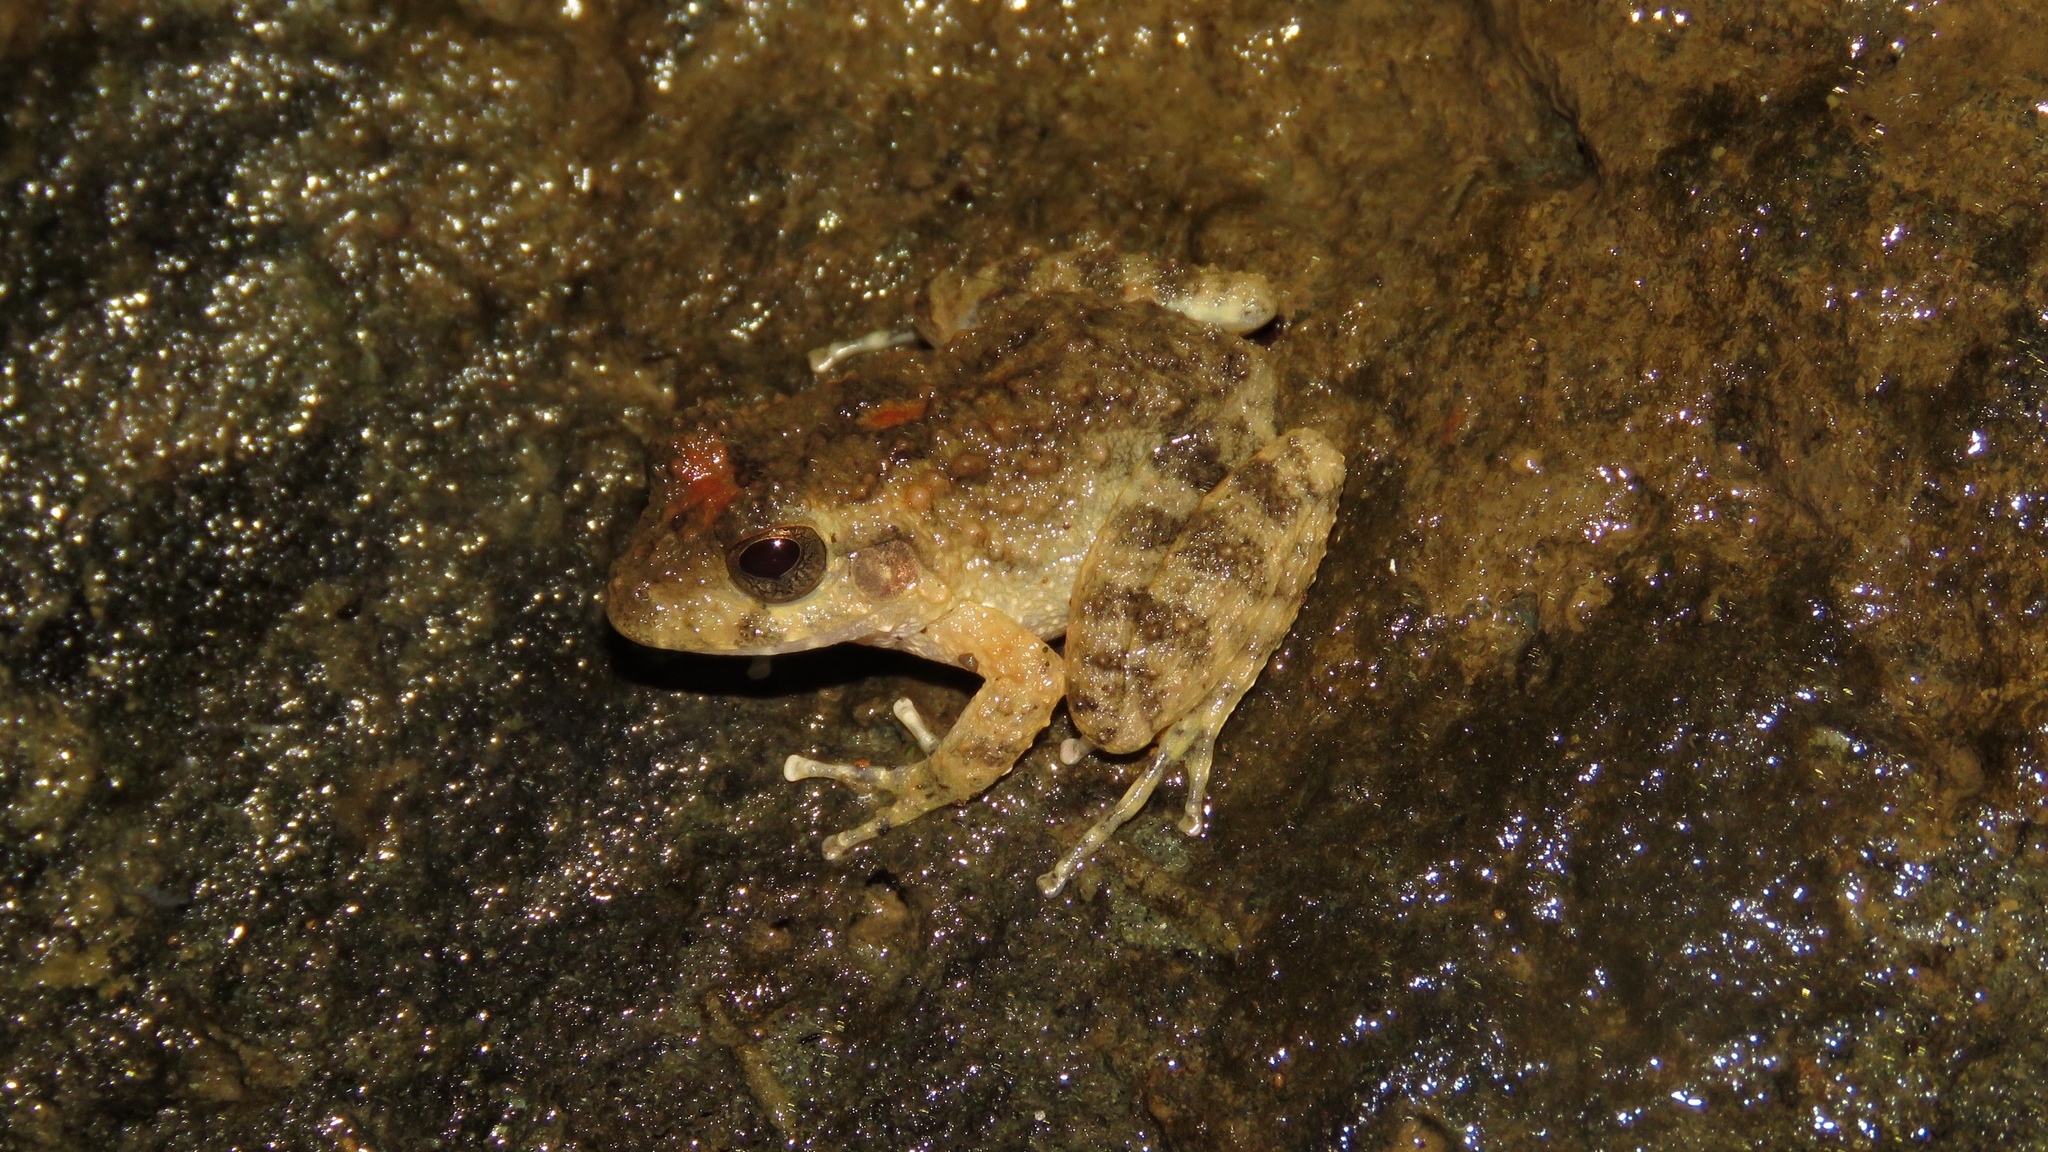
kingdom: Animalia
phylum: Chordata
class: Amphibia
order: Anura
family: Craugastoridae
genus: Craugastor
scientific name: Craugastor taurus
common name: Golfito robber frog
